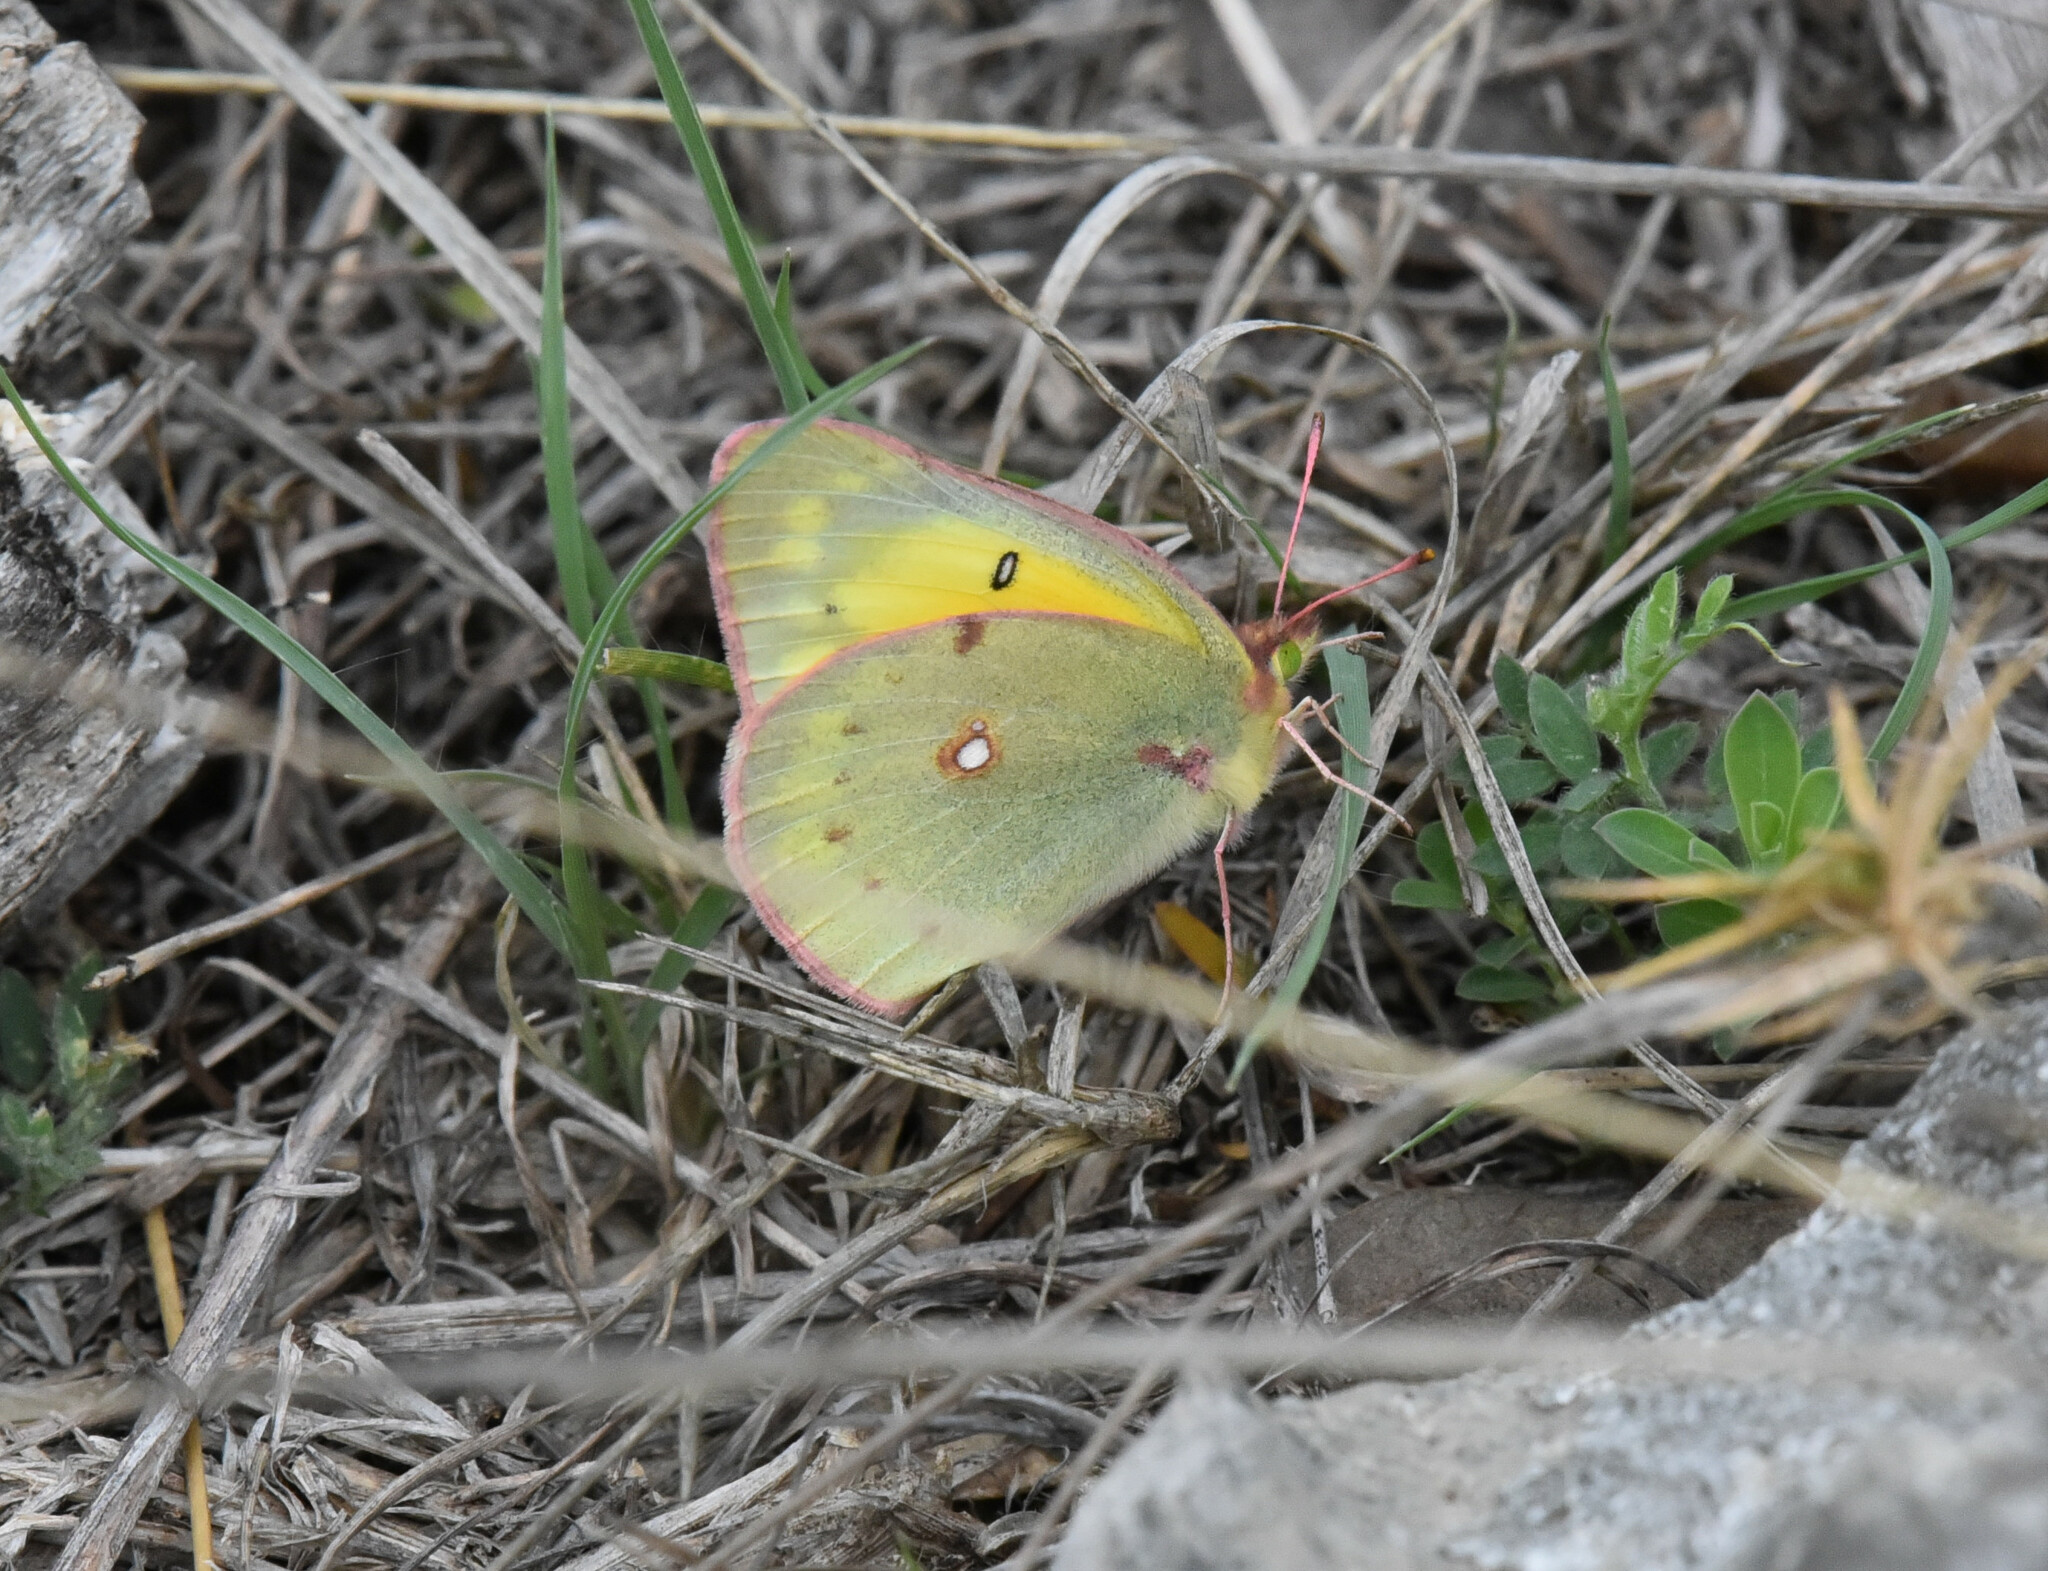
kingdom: Animalia
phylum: Arthropoda
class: Insecta
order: Lepidoptera
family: Pieridae
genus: Colias
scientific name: Colias eurytheme
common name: Alfalfa butterfly
